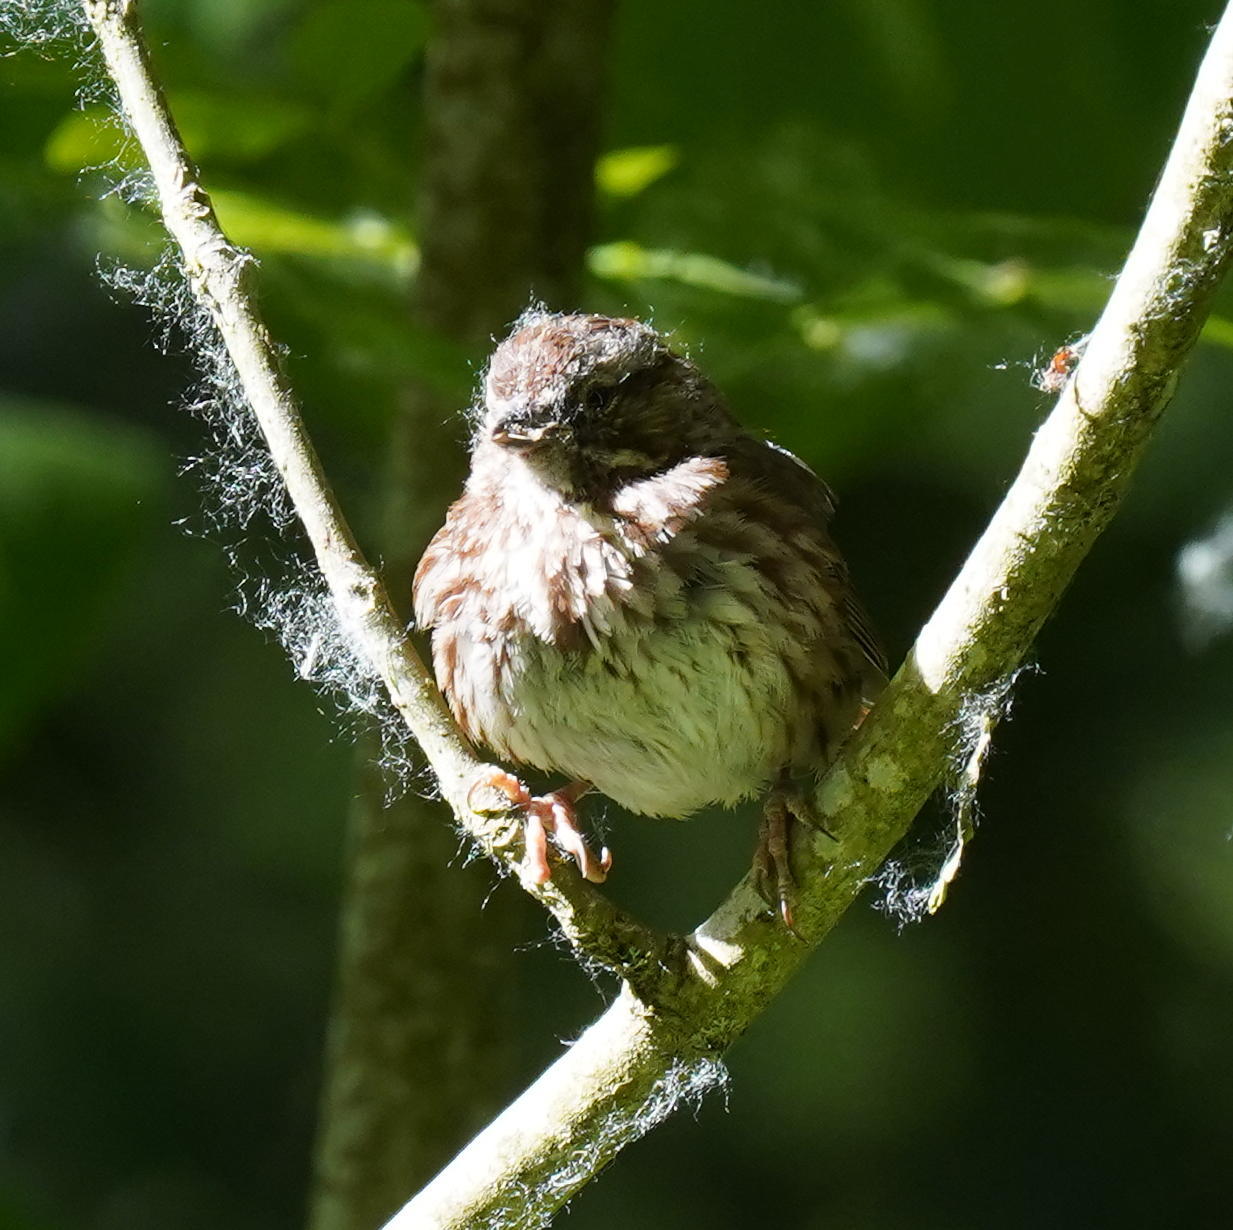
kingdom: Animalia
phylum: Chordata
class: Aves
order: Passeriformes
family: Passerellidae
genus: Melospiza
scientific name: Melospiza melodia
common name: Song sparrow
